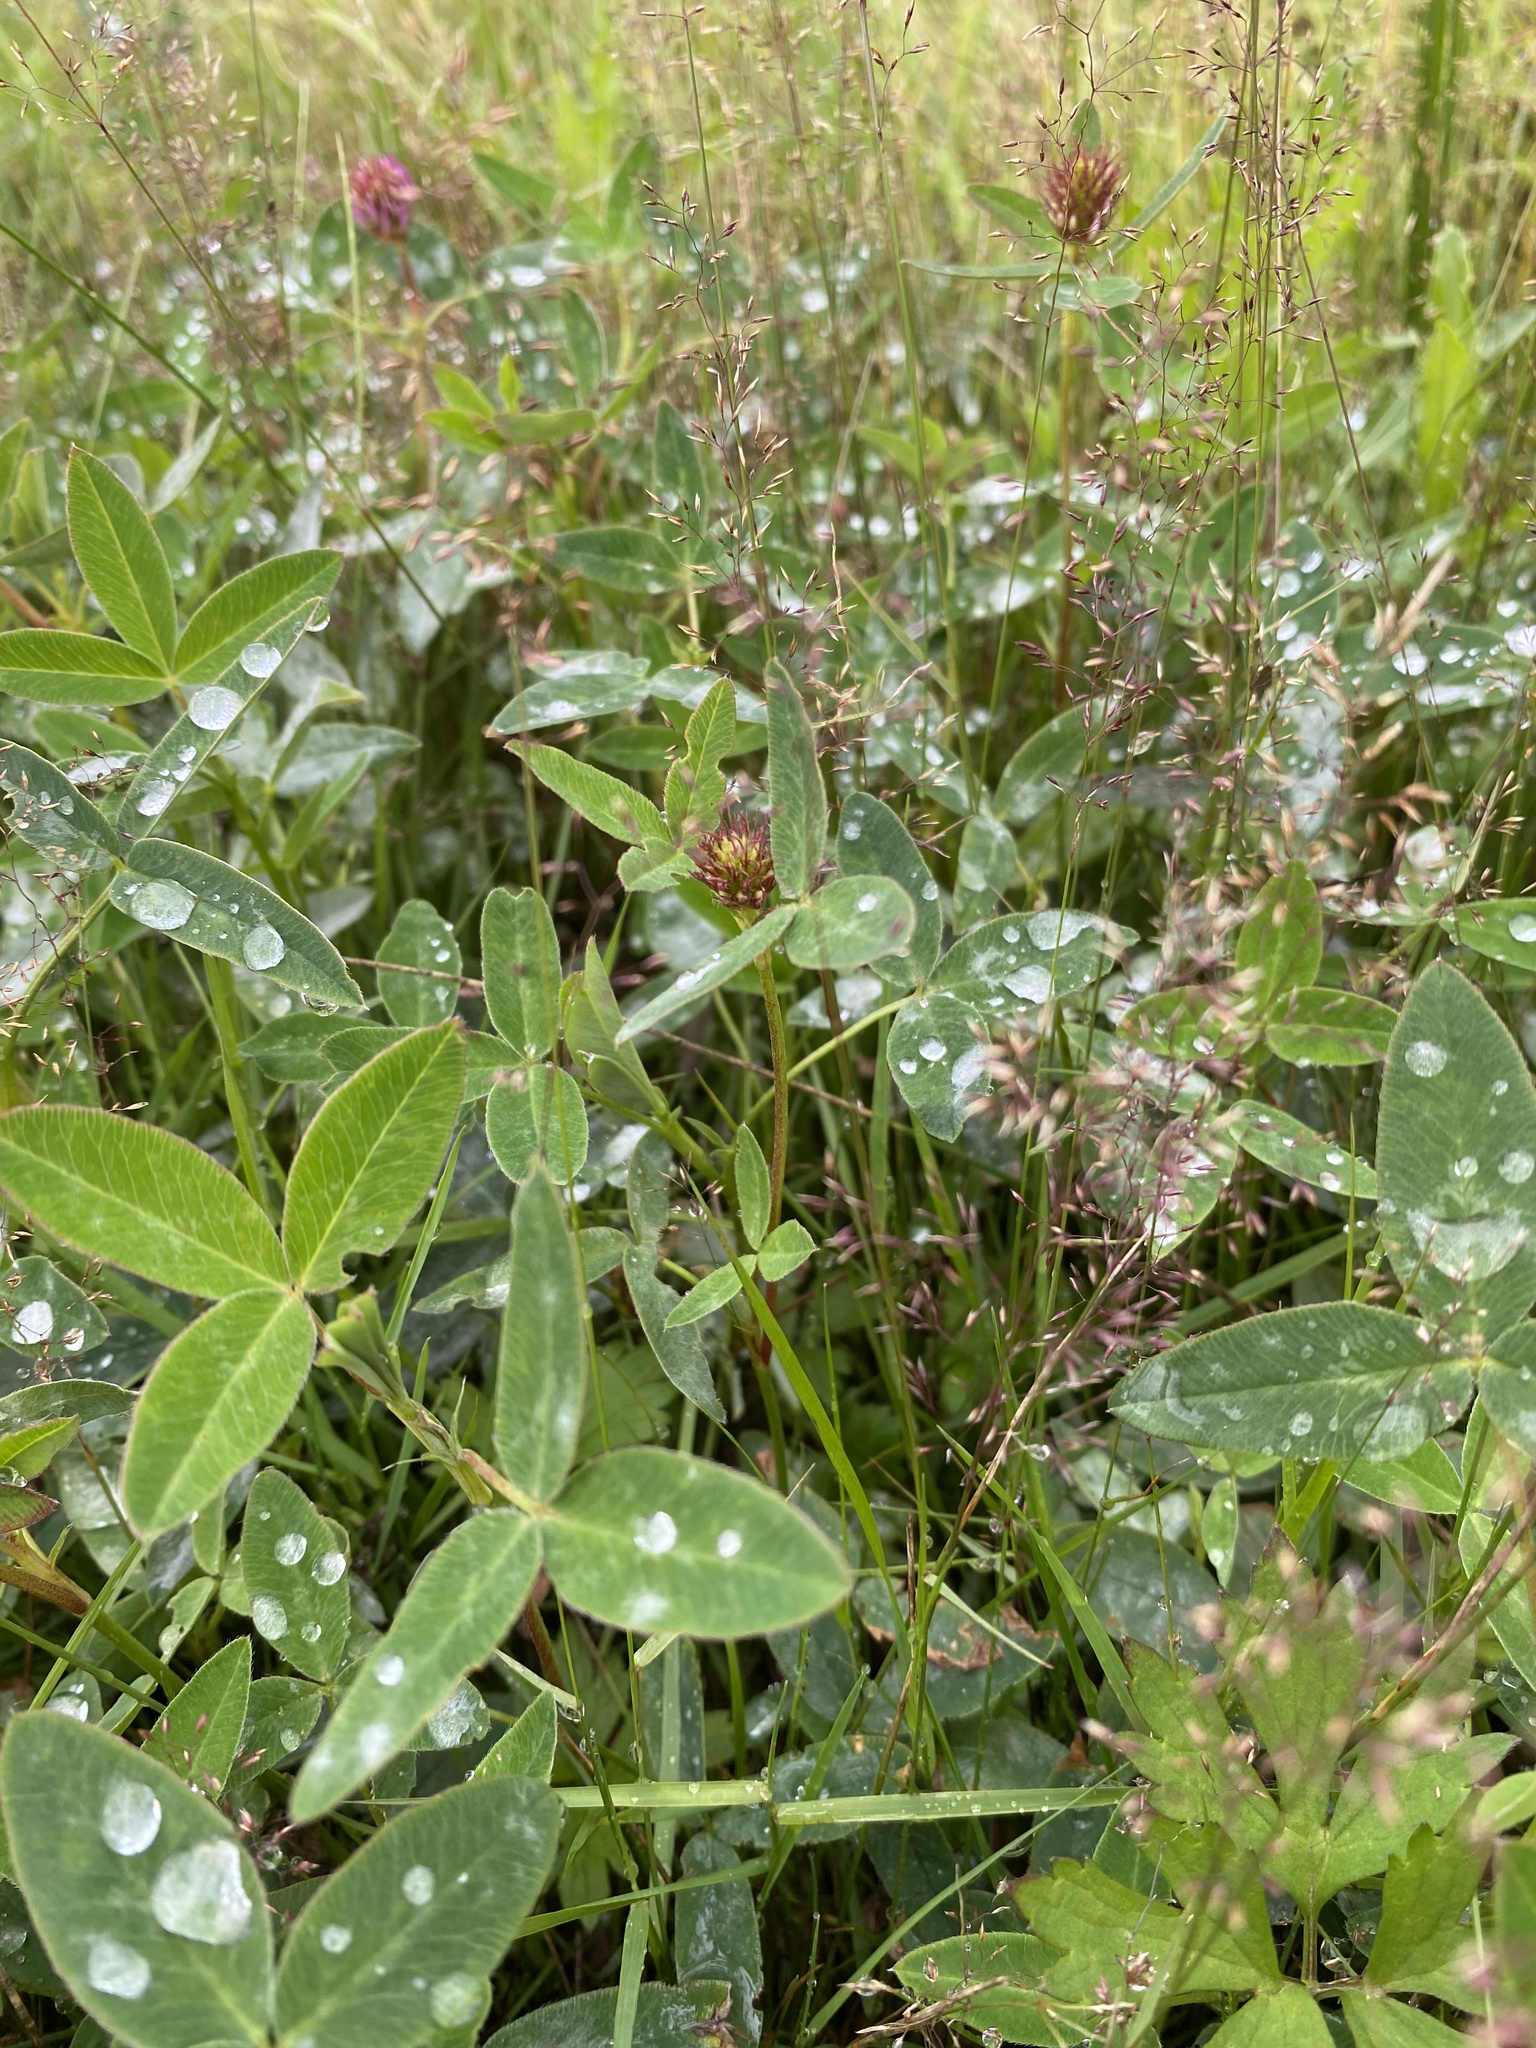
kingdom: Plantae
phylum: Tracheophyta
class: Magnoliopsida
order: Fabales
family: Fabaceae
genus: Trifolium
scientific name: Trifolium medium
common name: Zigzag clover
